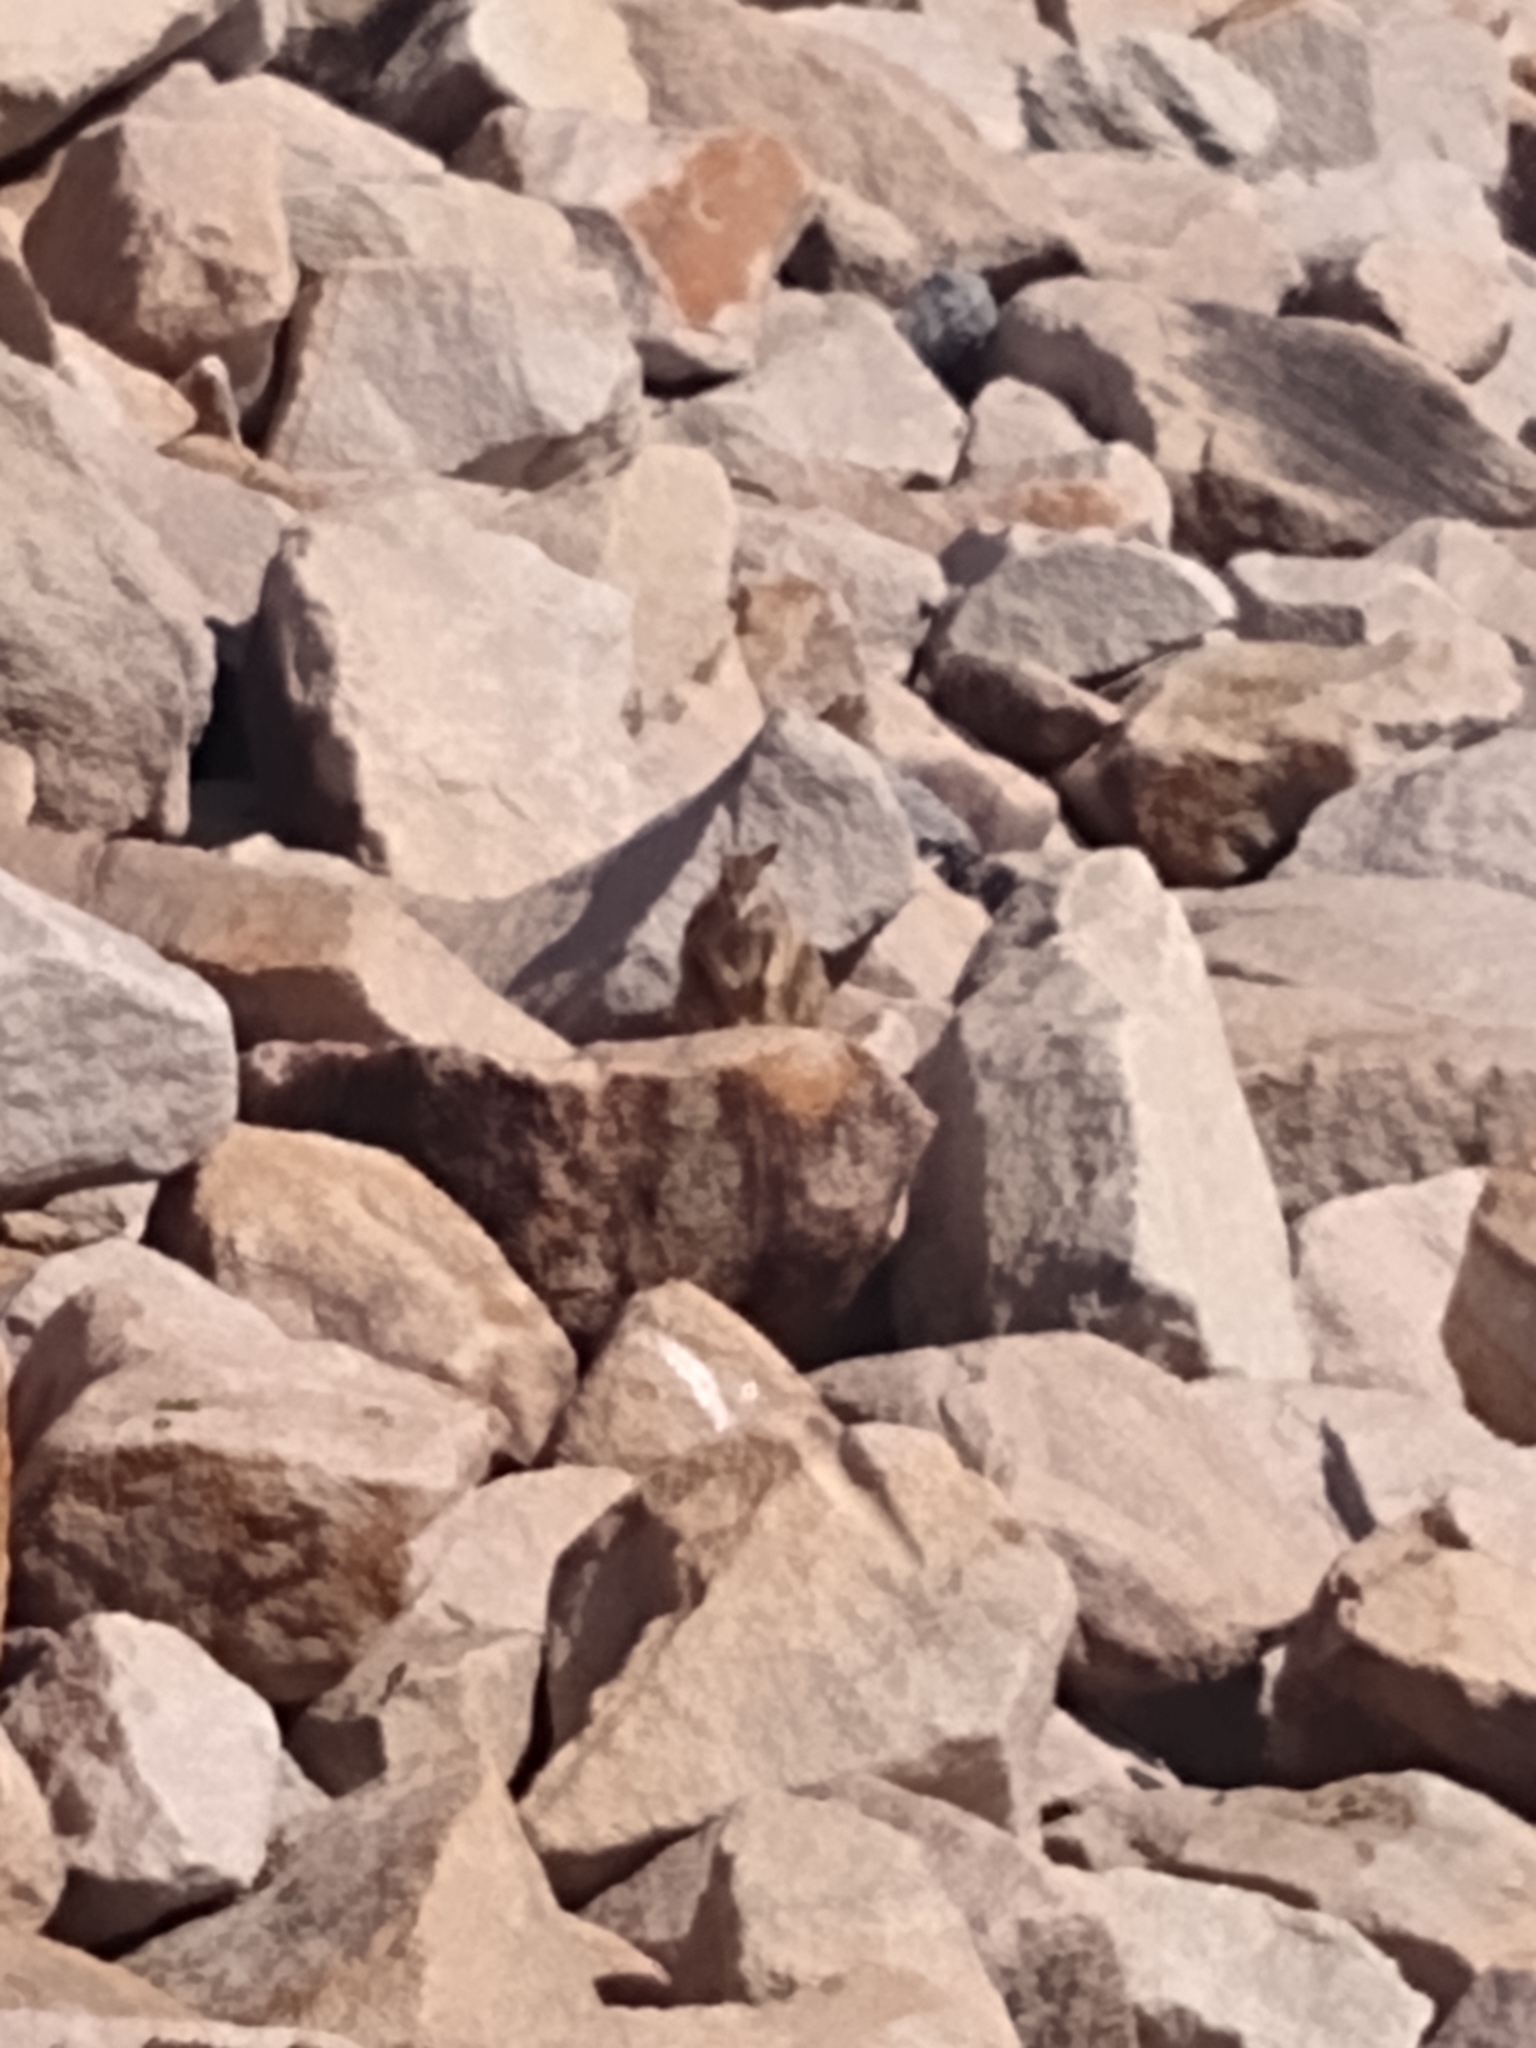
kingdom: Animalia
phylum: Chordata
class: Mammalia
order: Diprotodontia
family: Macropodidae
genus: Petrogale
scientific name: Petrogale assimilis
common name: Allied rock wallaby
